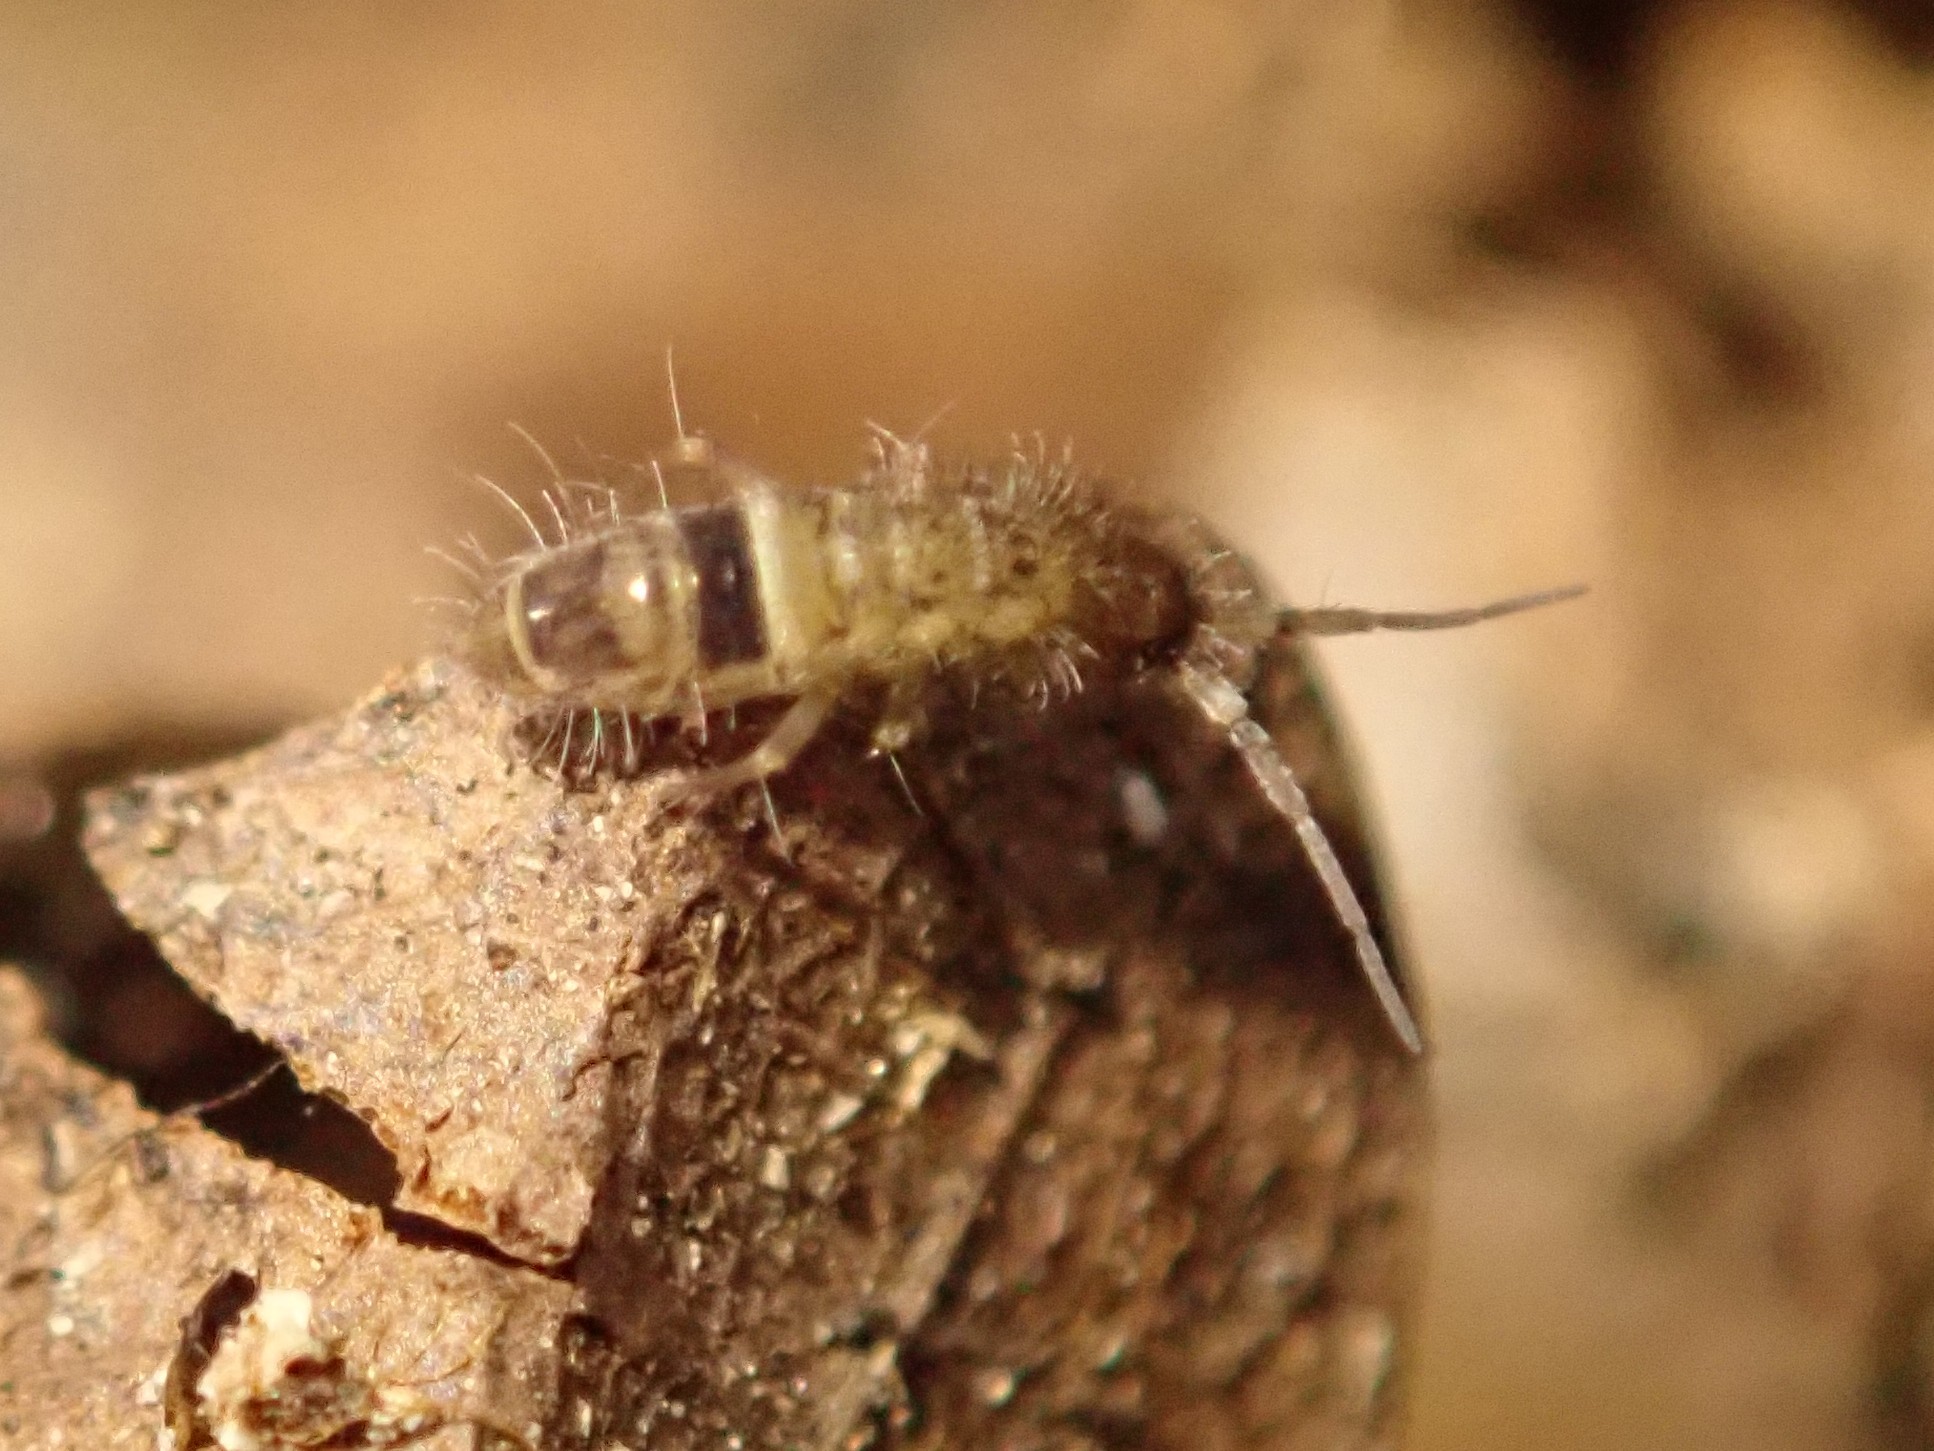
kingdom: Animalia
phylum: Arthropoda
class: Collembola
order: Entomobryomorpha
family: Orchesellidae
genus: Orchesella
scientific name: Orchesella cincta
